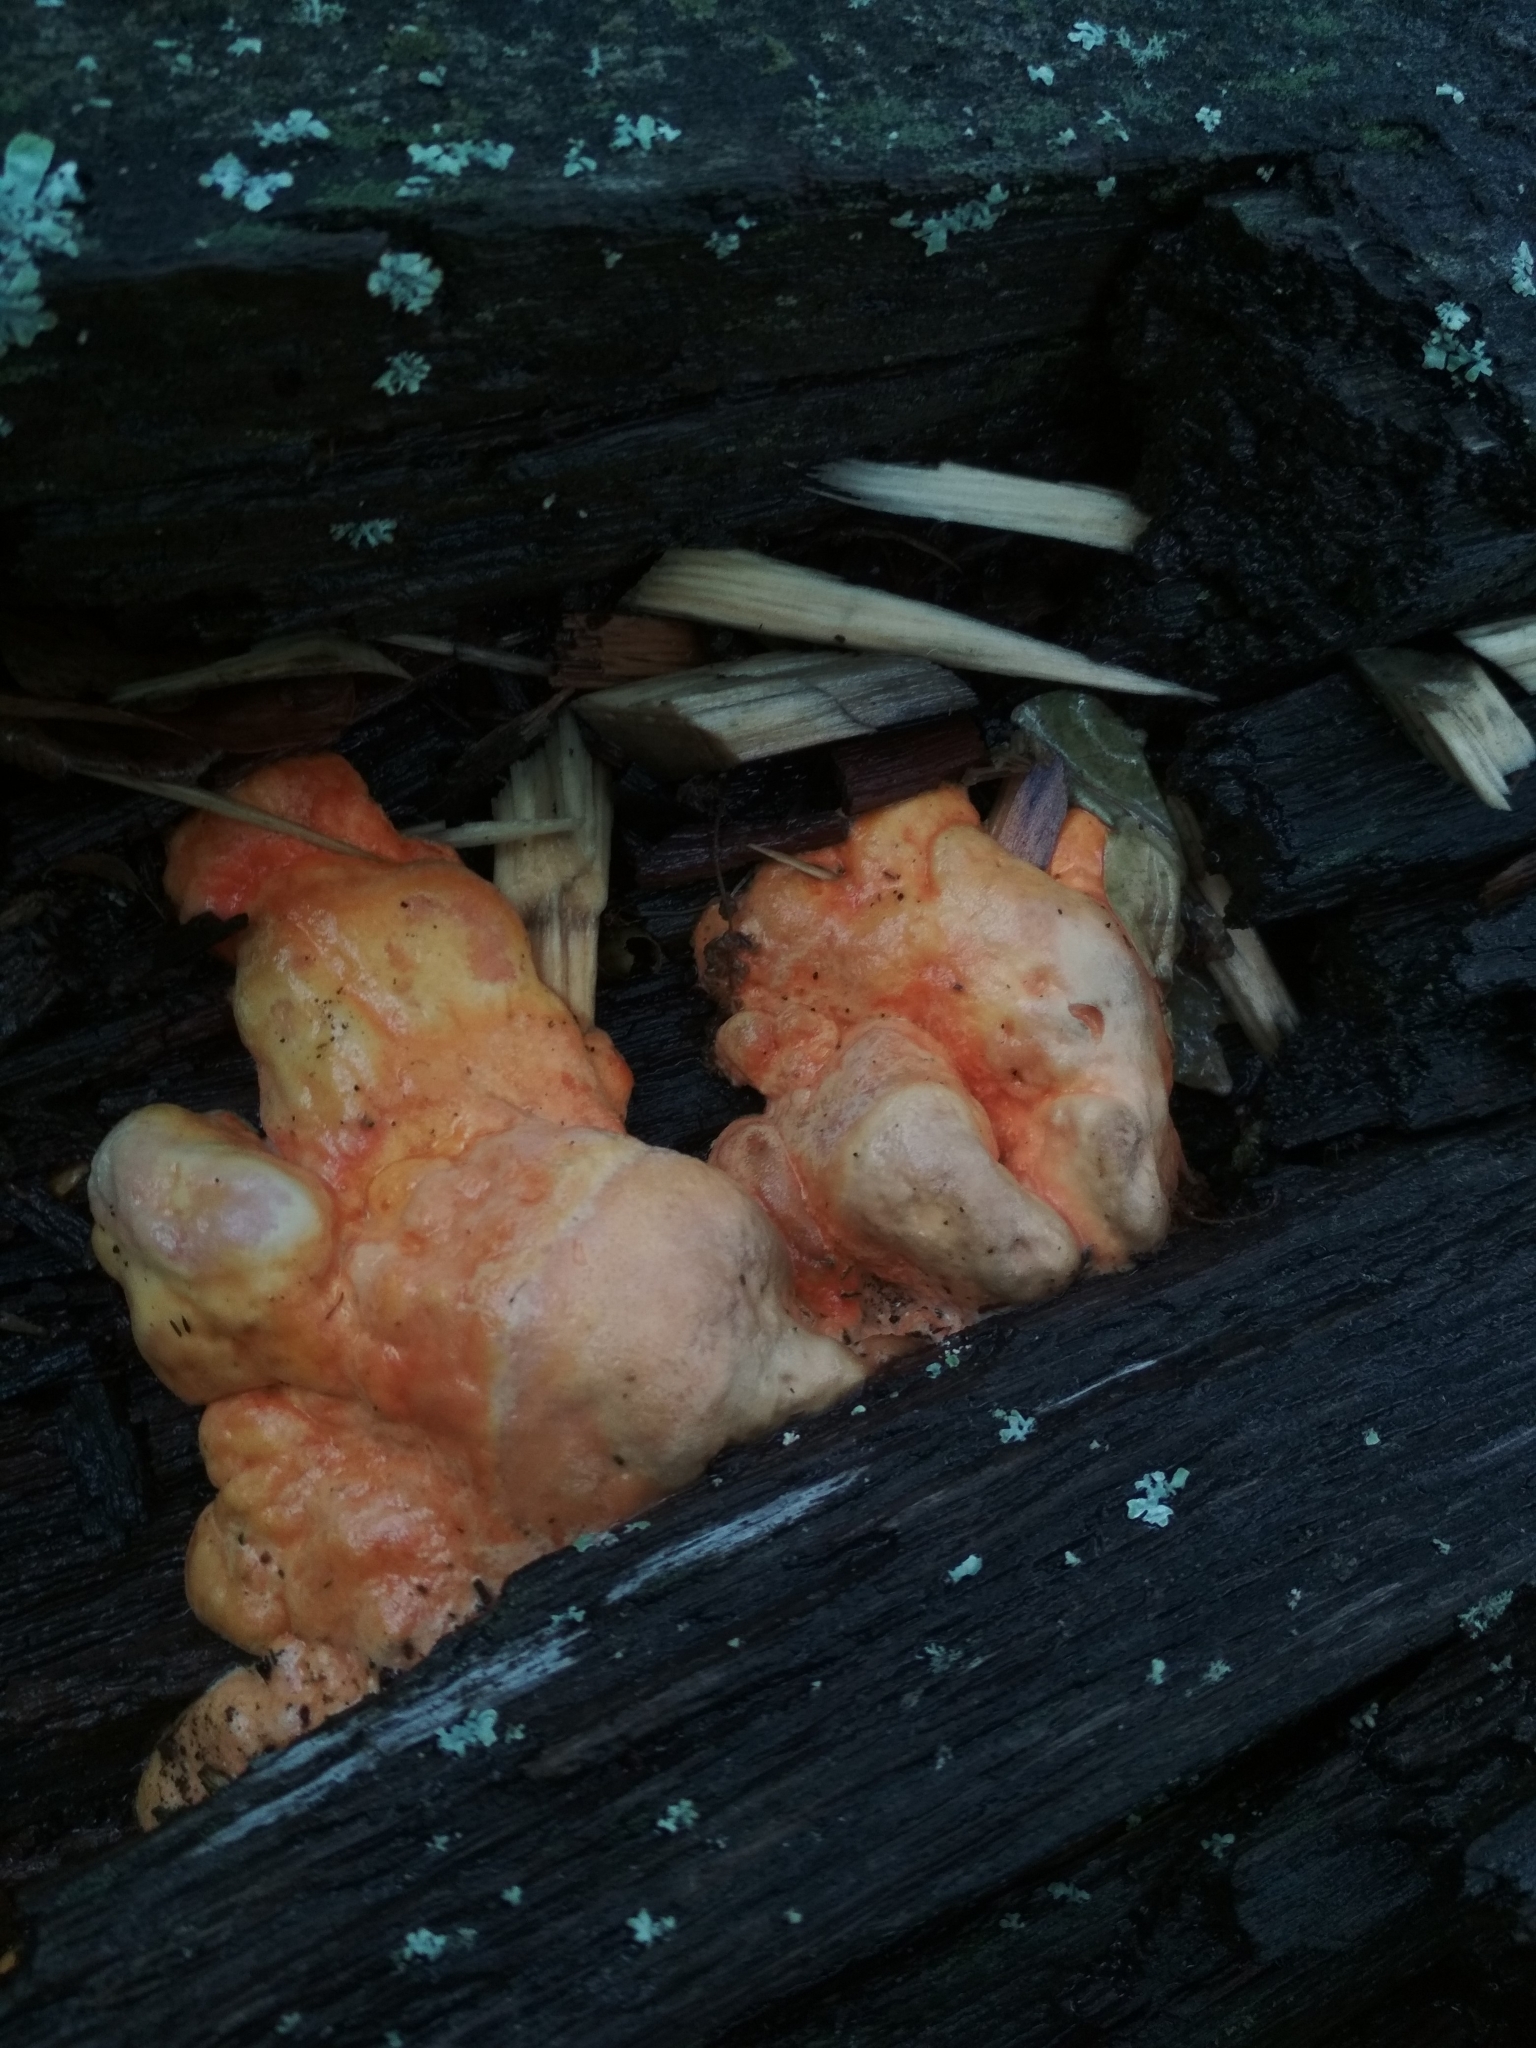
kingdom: Fungi
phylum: Basidiomycota
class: Agaricomycetes
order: Polyporales
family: Laetiporaceae
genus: Laetiporus
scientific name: Laetiporus sulphureus
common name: Chicken of the woods
